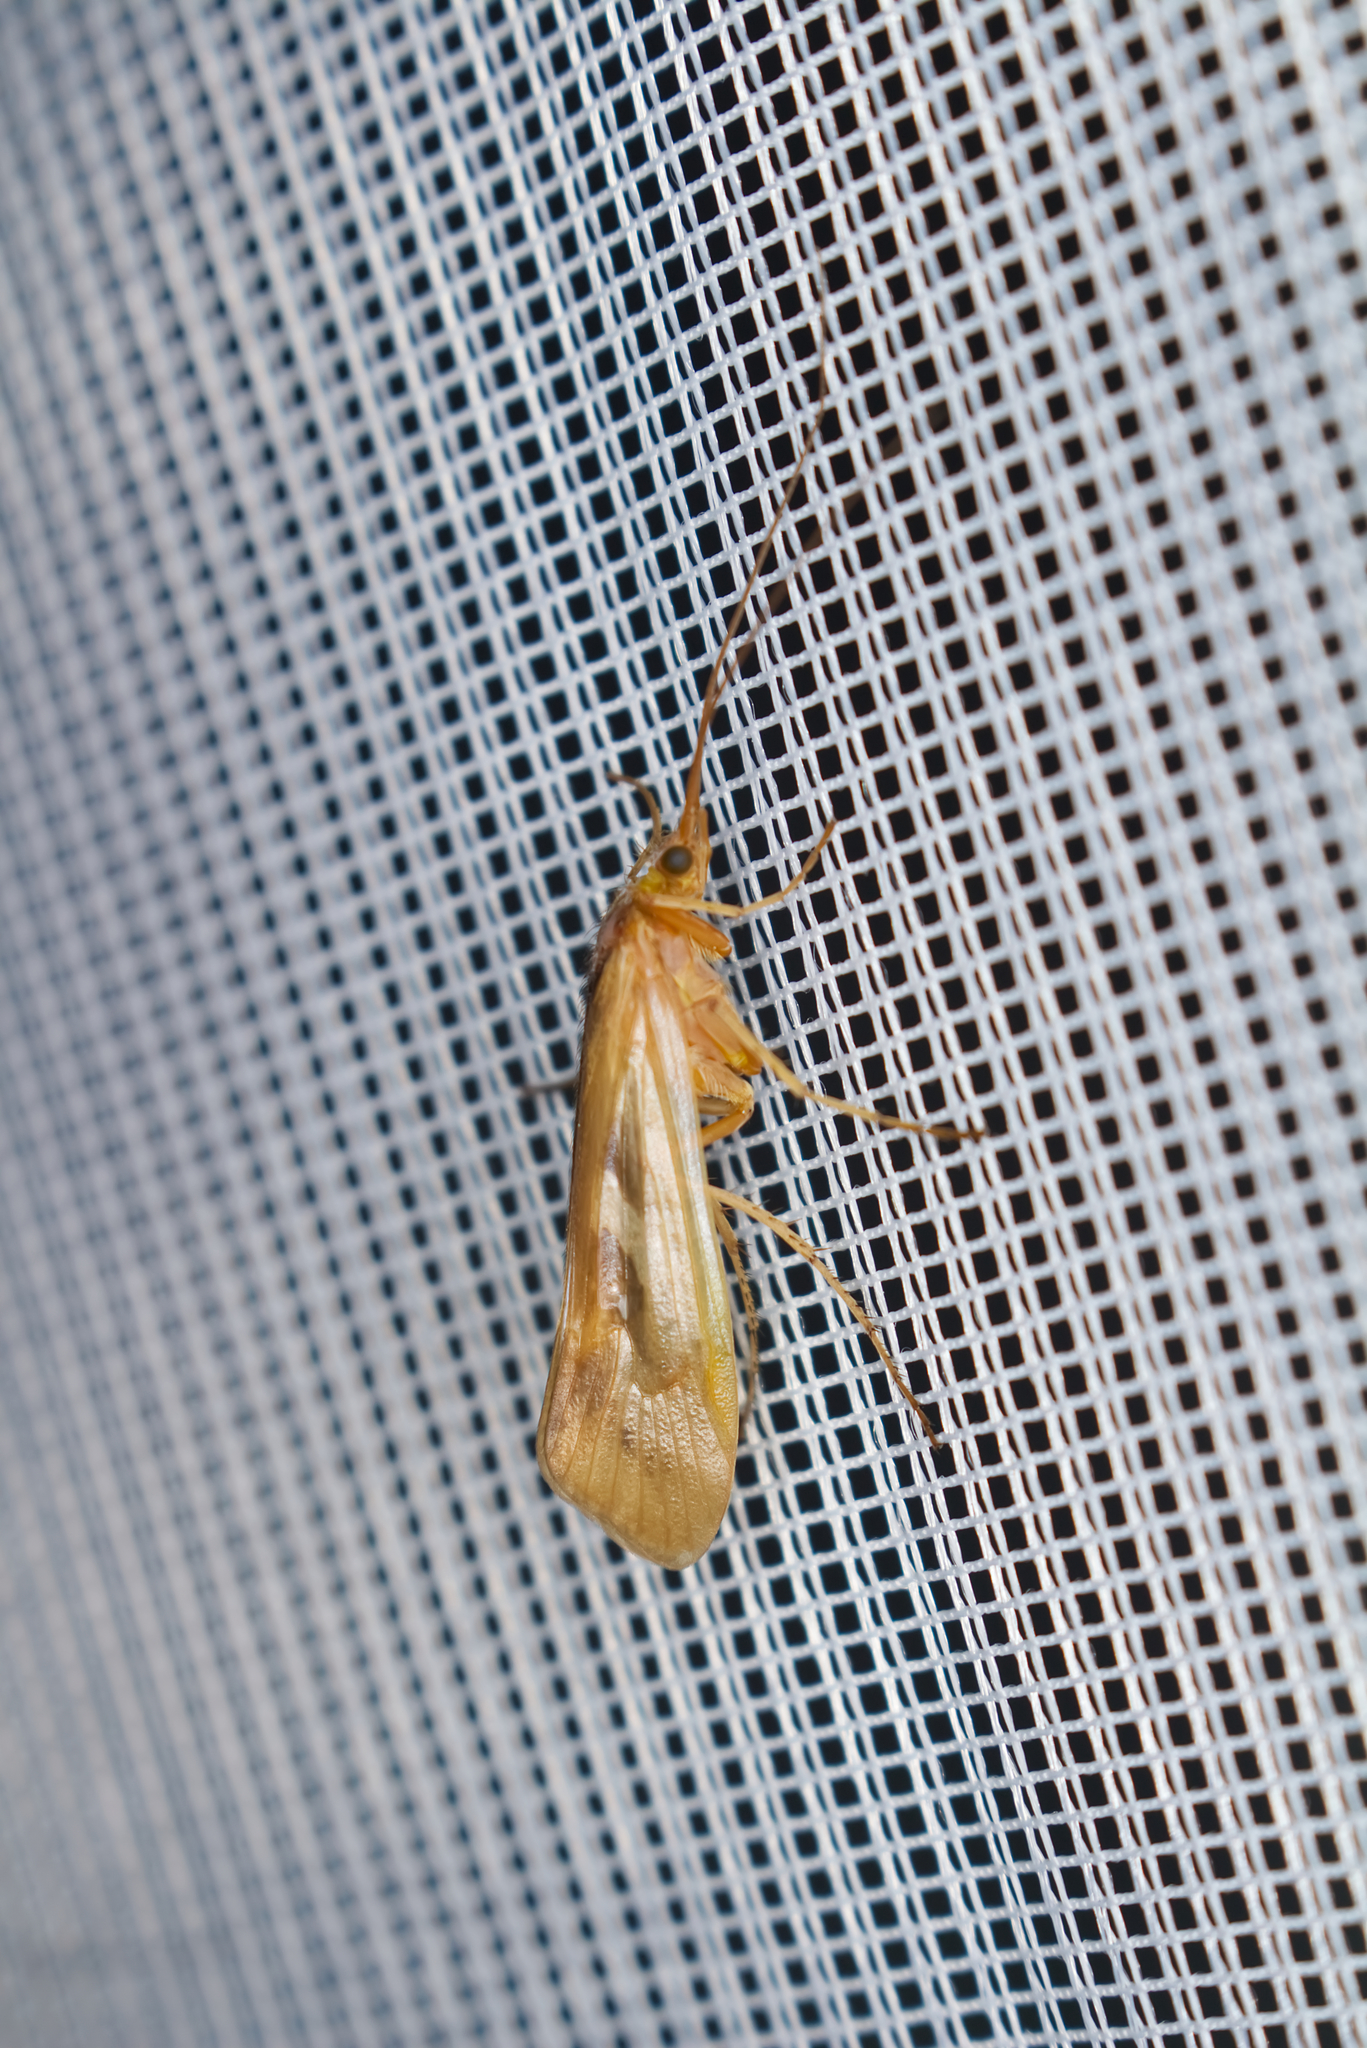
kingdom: Animalia
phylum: Arthropoda
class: Insecta
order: Trichoptera
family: Limnephilidae
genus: Limnephilus
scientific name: Limnephilus rhombicus
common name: Diamond northern caddisfly
